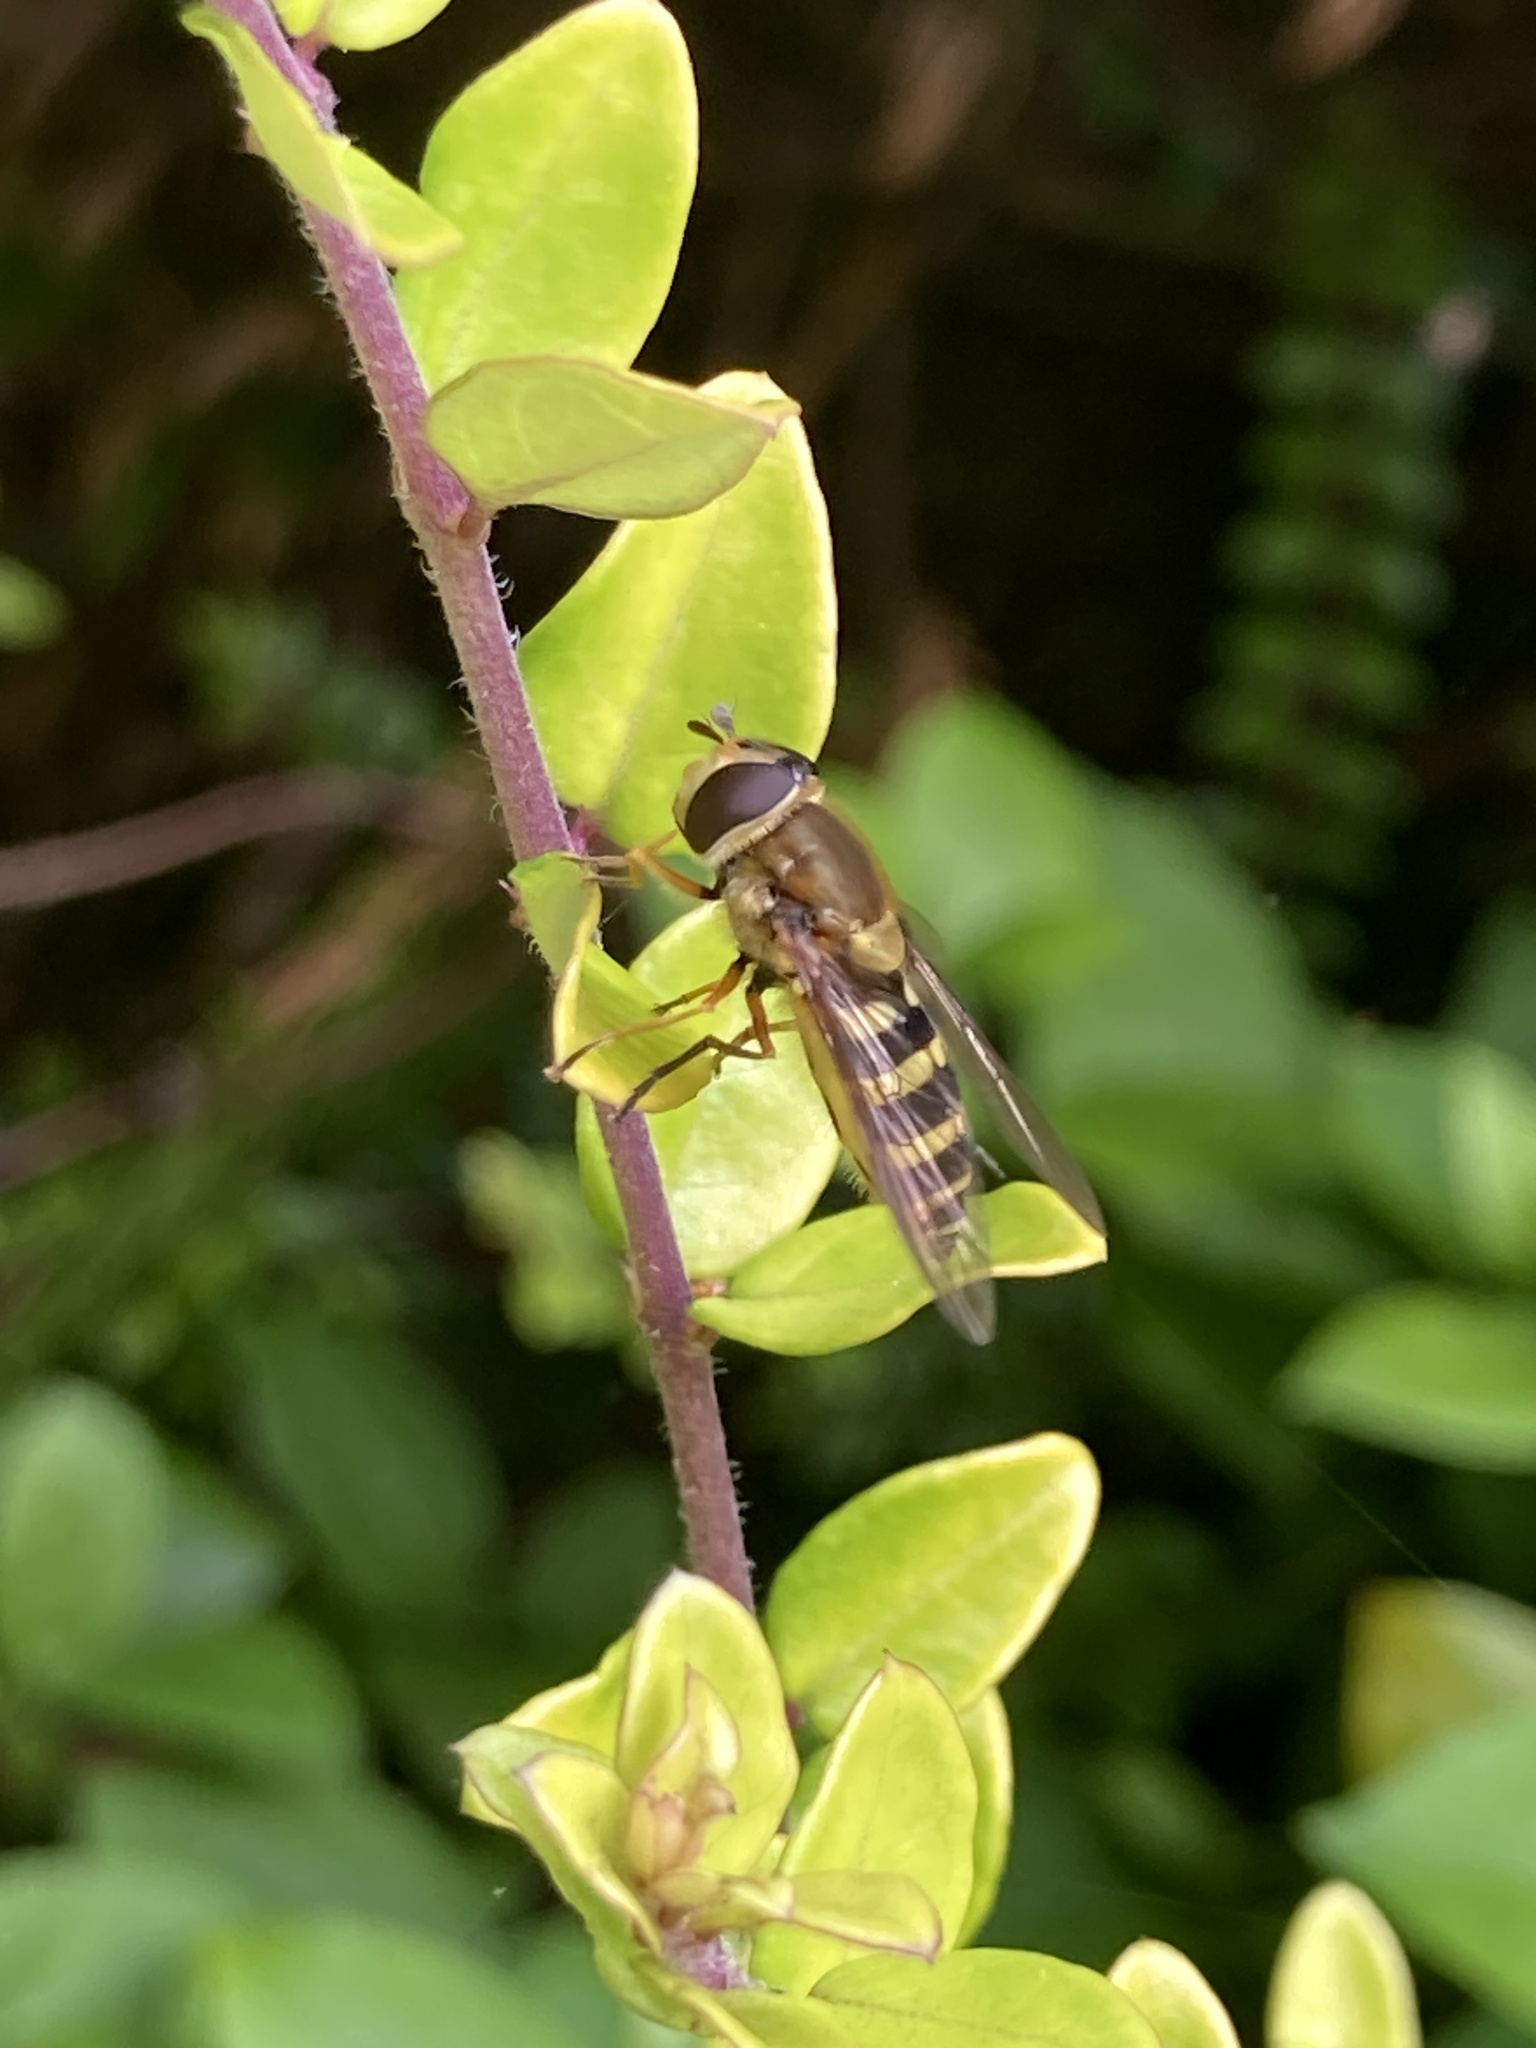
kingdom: Animalia
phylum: Arthropoda
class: Insecta
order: Diptera
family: Syrphidae
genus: Syrphus
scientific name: Syrphus ribesii
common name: Common flower fly
